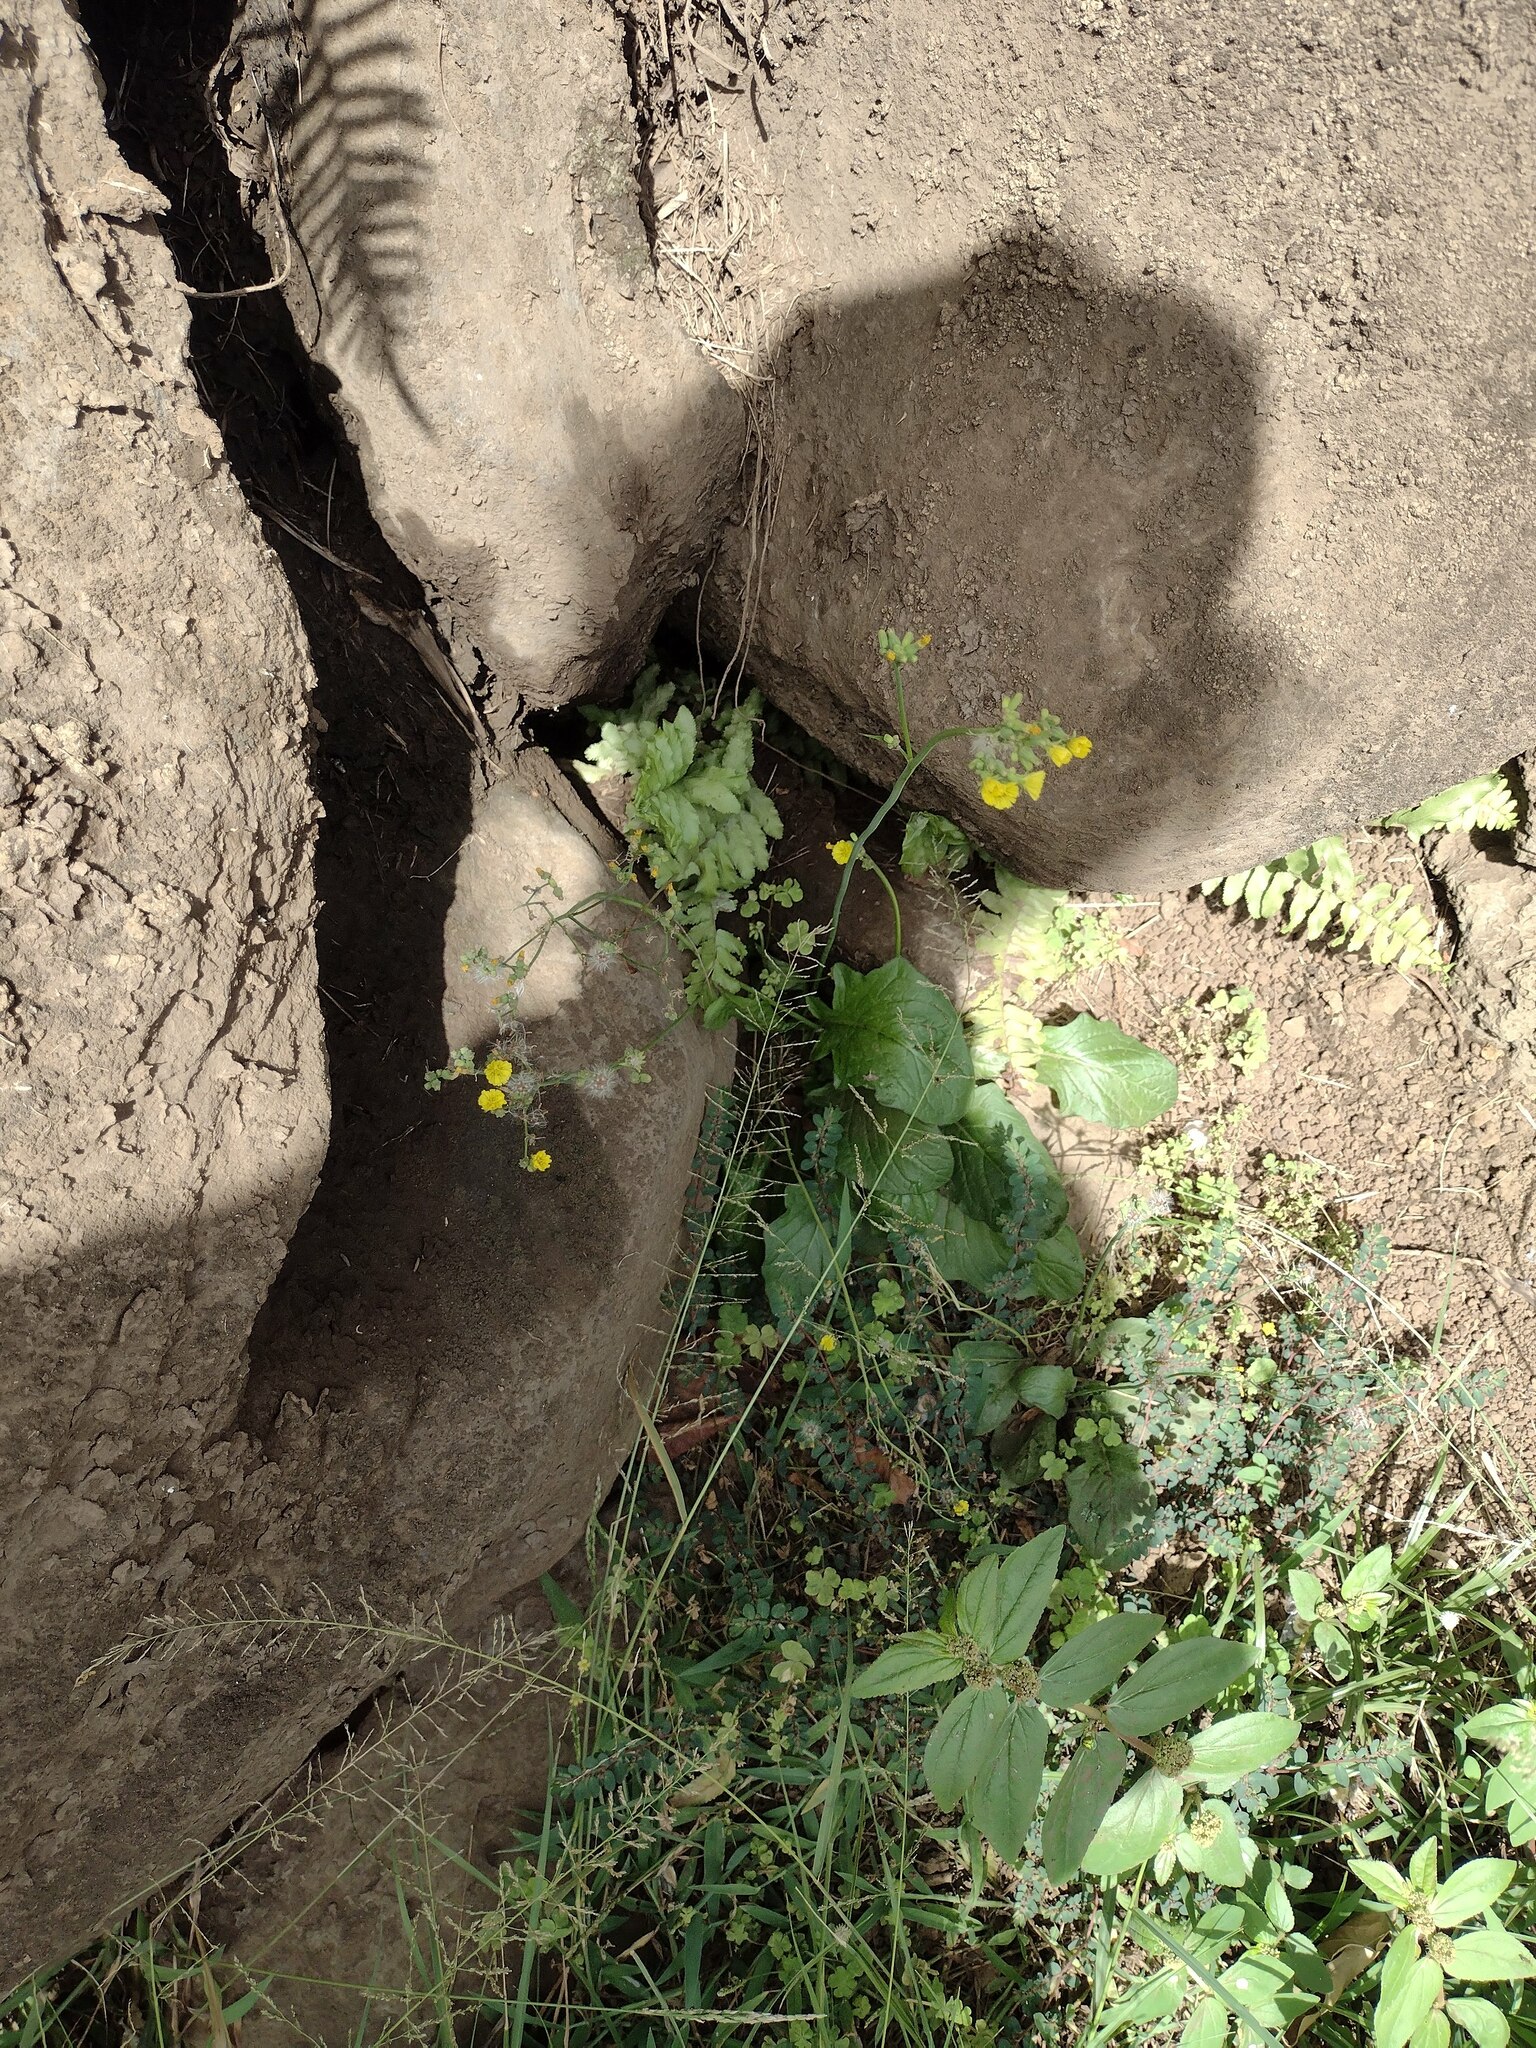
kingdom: Plantae
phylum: Tracheophyta
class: Magnoliopsida
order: Asterales
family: Asteraceae
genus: Youngia
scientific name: Youngia japonica
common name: Oriental false hawksbeard
